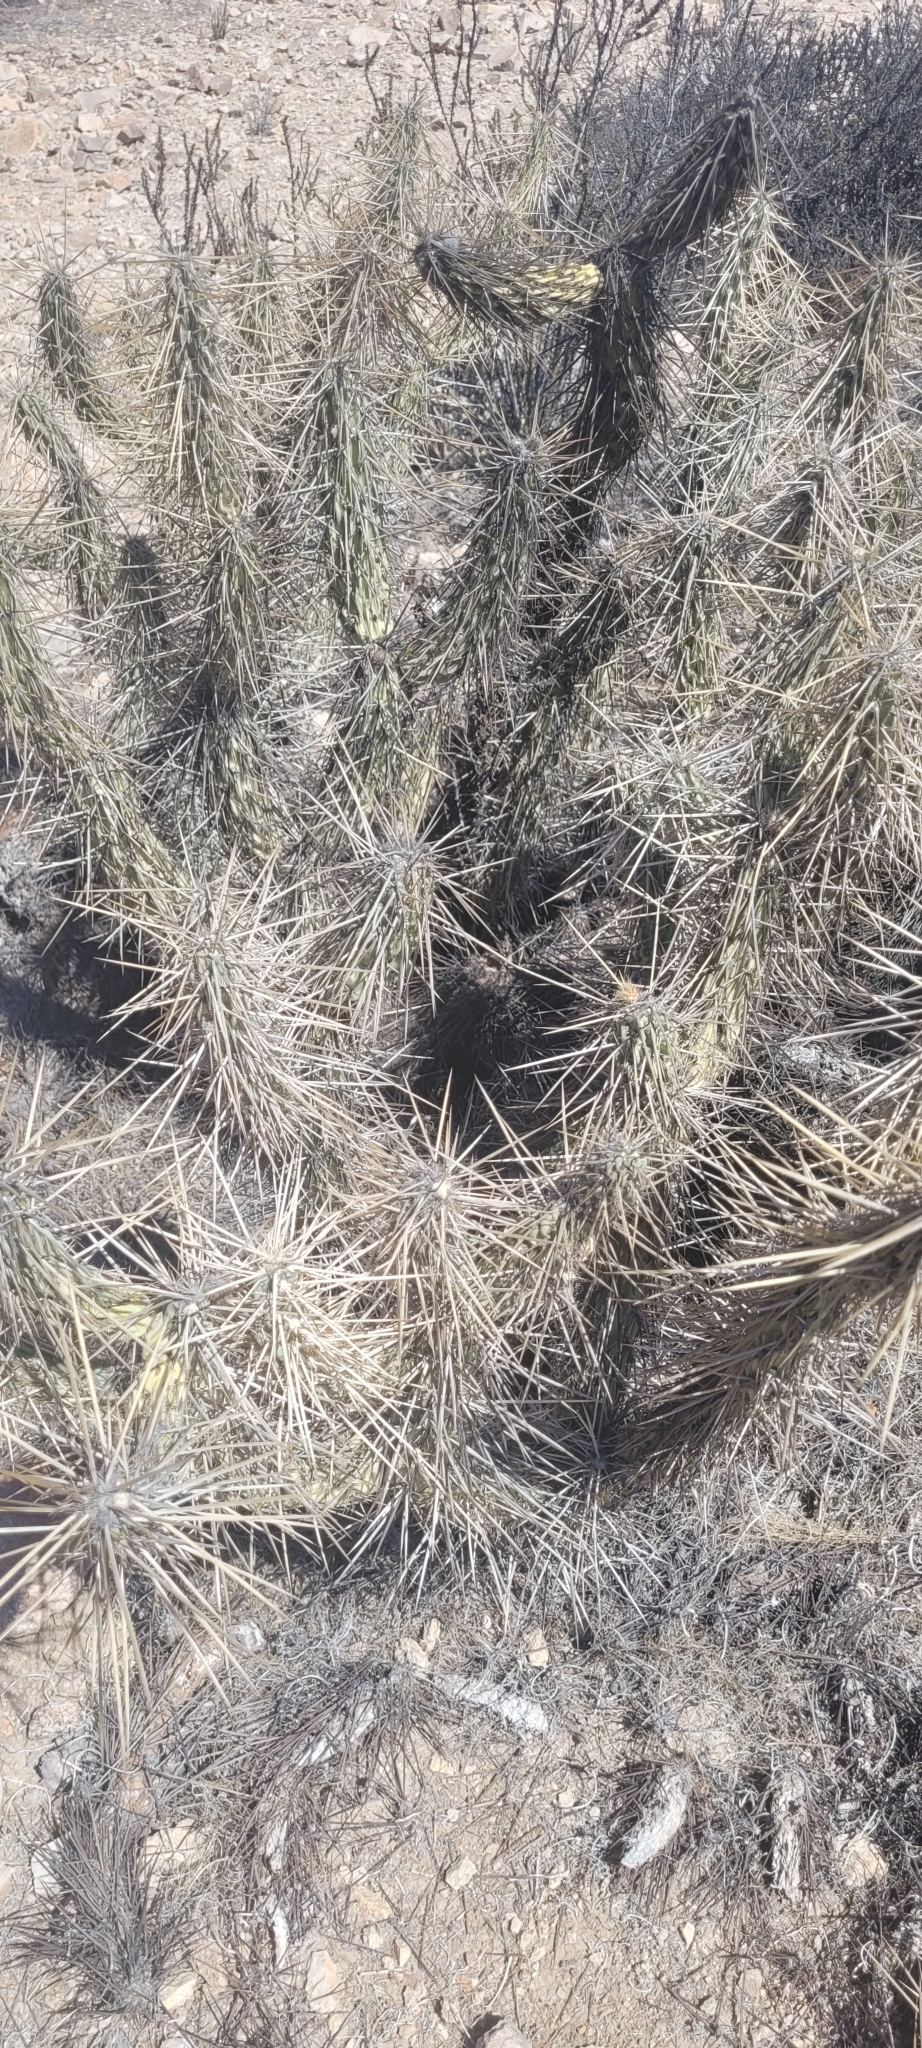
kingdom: Plantae
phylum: Tracheophyta
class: Magnoliopsida
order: Caryophyllales
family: Cactaceae
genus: Miqueliopuntia
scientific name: Miqueliopuntia miquelii
